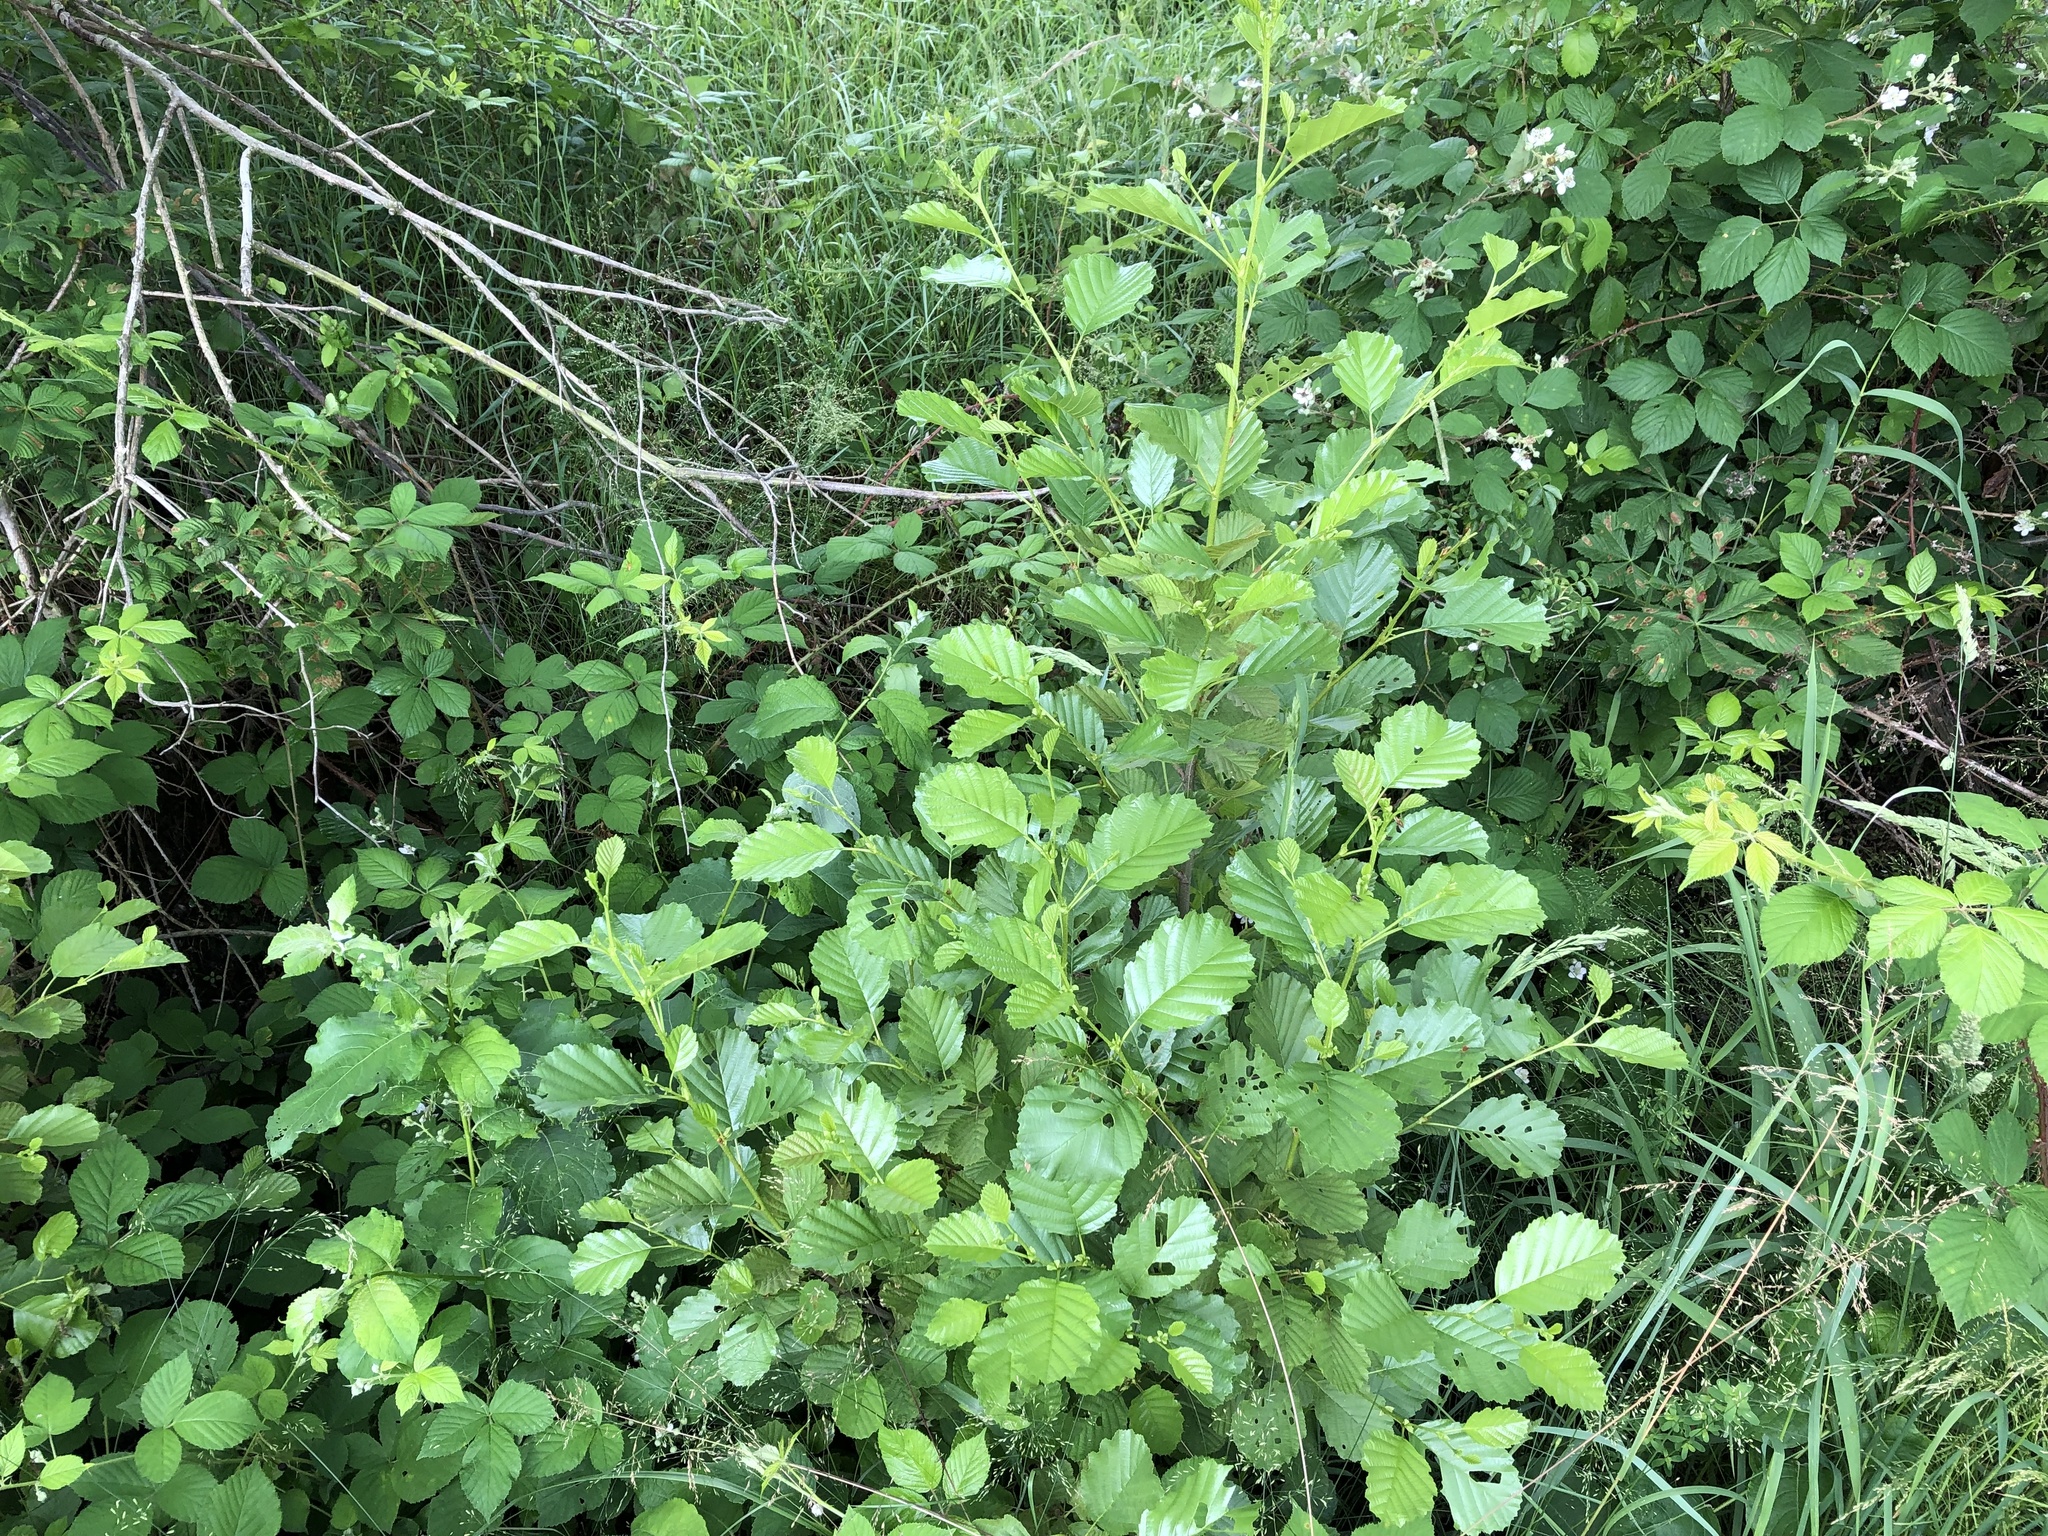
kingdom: Plantae
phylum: Tracheophyta
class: Magnoliopsida
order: Fagales
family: Betulaceae
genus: Alnus
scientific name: Alnus glutinosa
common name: Black alder
